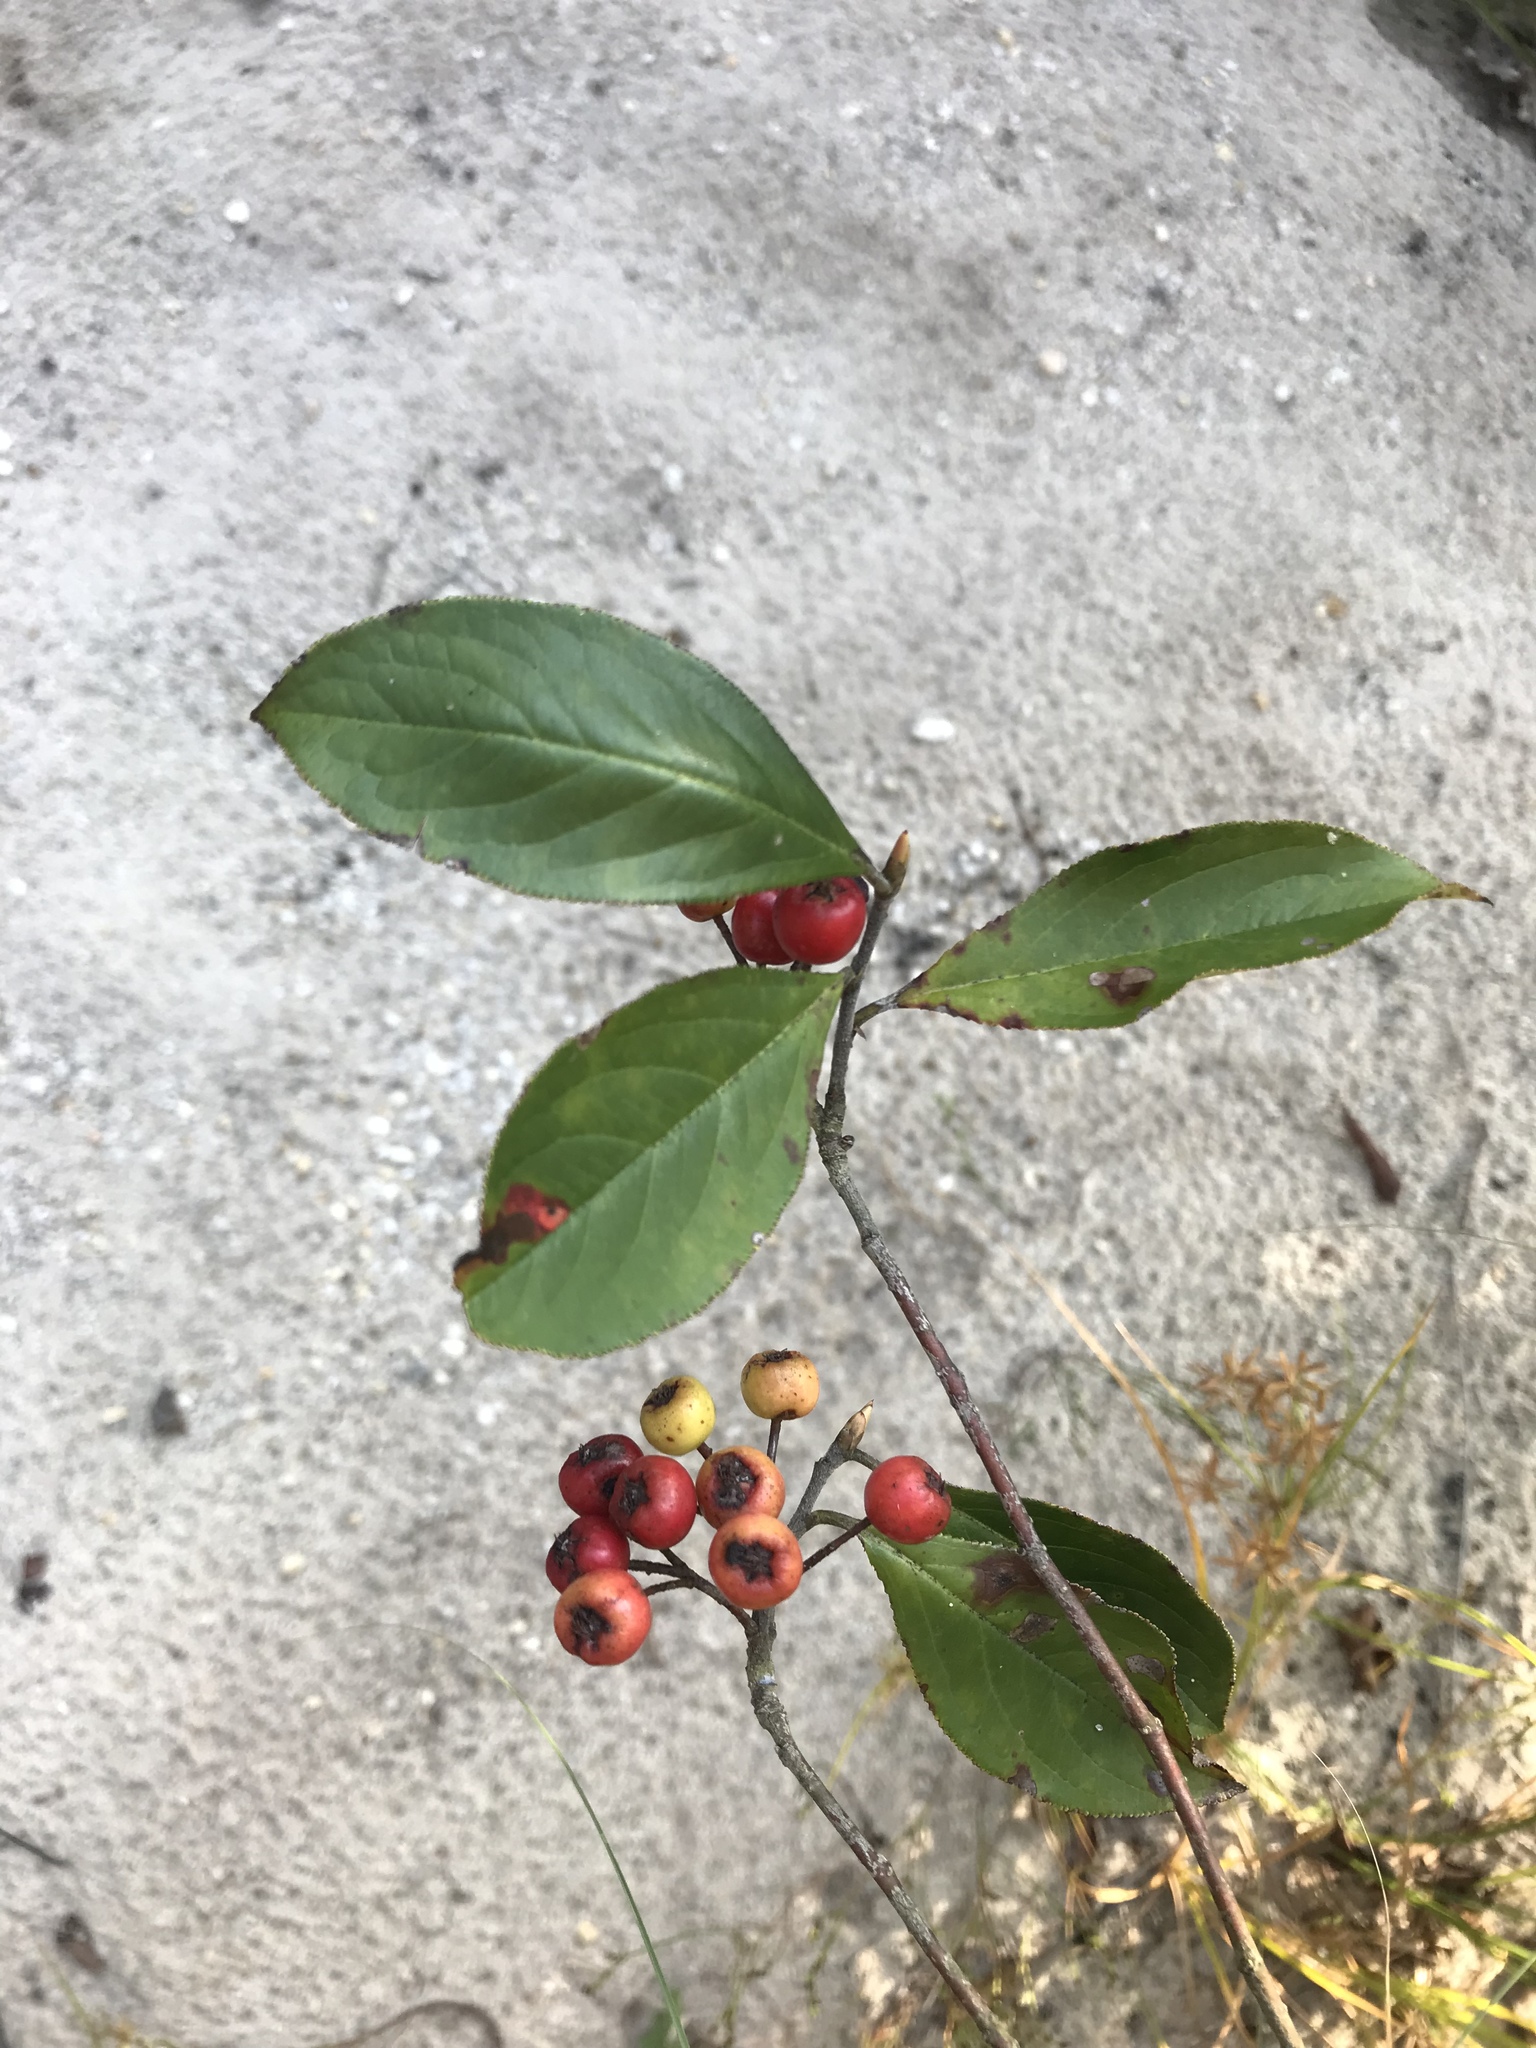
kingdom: Plantae
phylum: Tracheophyta
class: Magnoliopsida
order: Rosales
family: Rosaceae
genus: Aronia
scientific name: Aronia arbutifolia
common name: Red chokeberry
